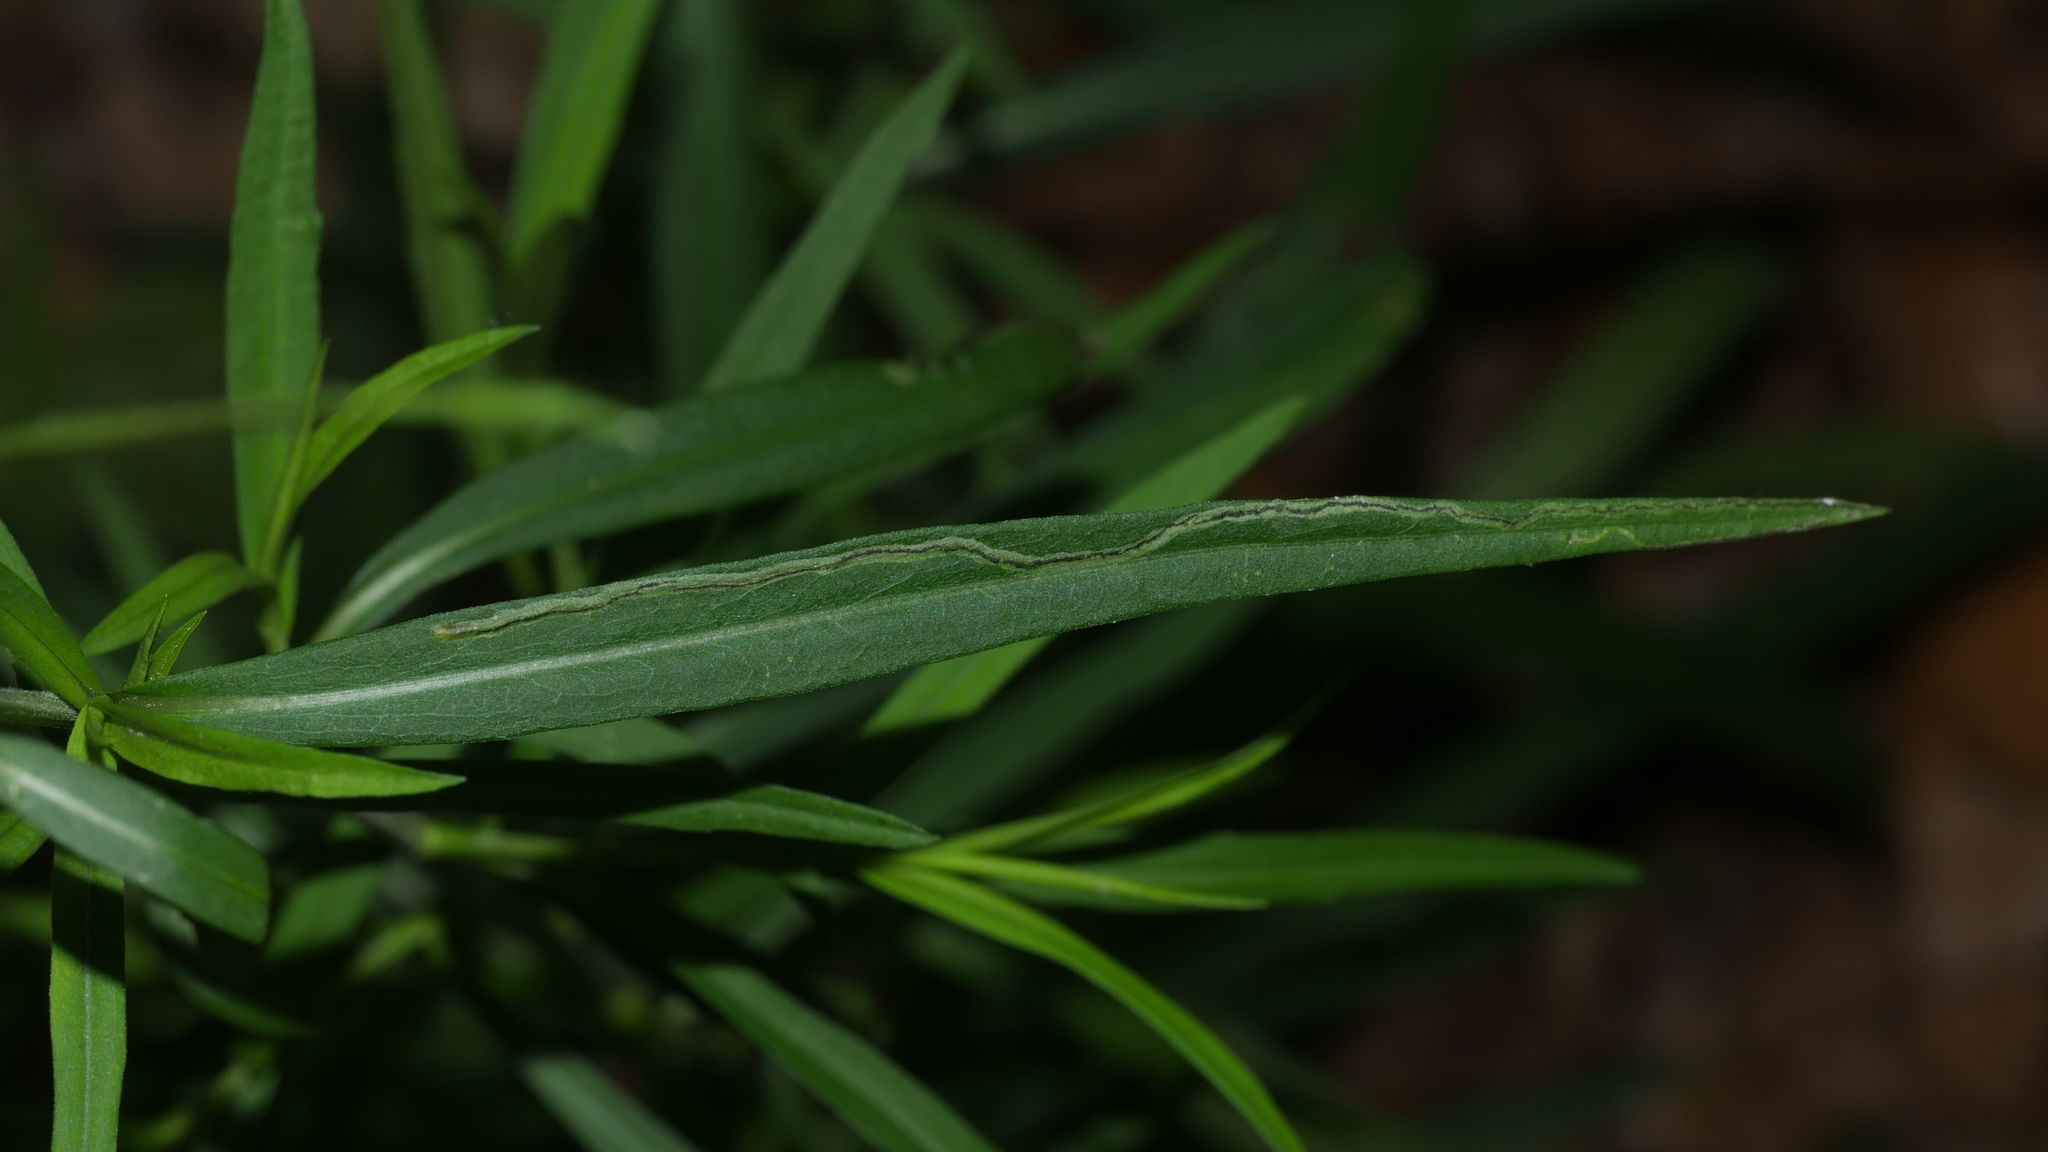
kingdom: Animalia
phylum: Arthropoda
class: Insecta
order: Diptera
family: Agromyzidae
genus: Liriomyza
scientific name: Liriomyza eupatorii
